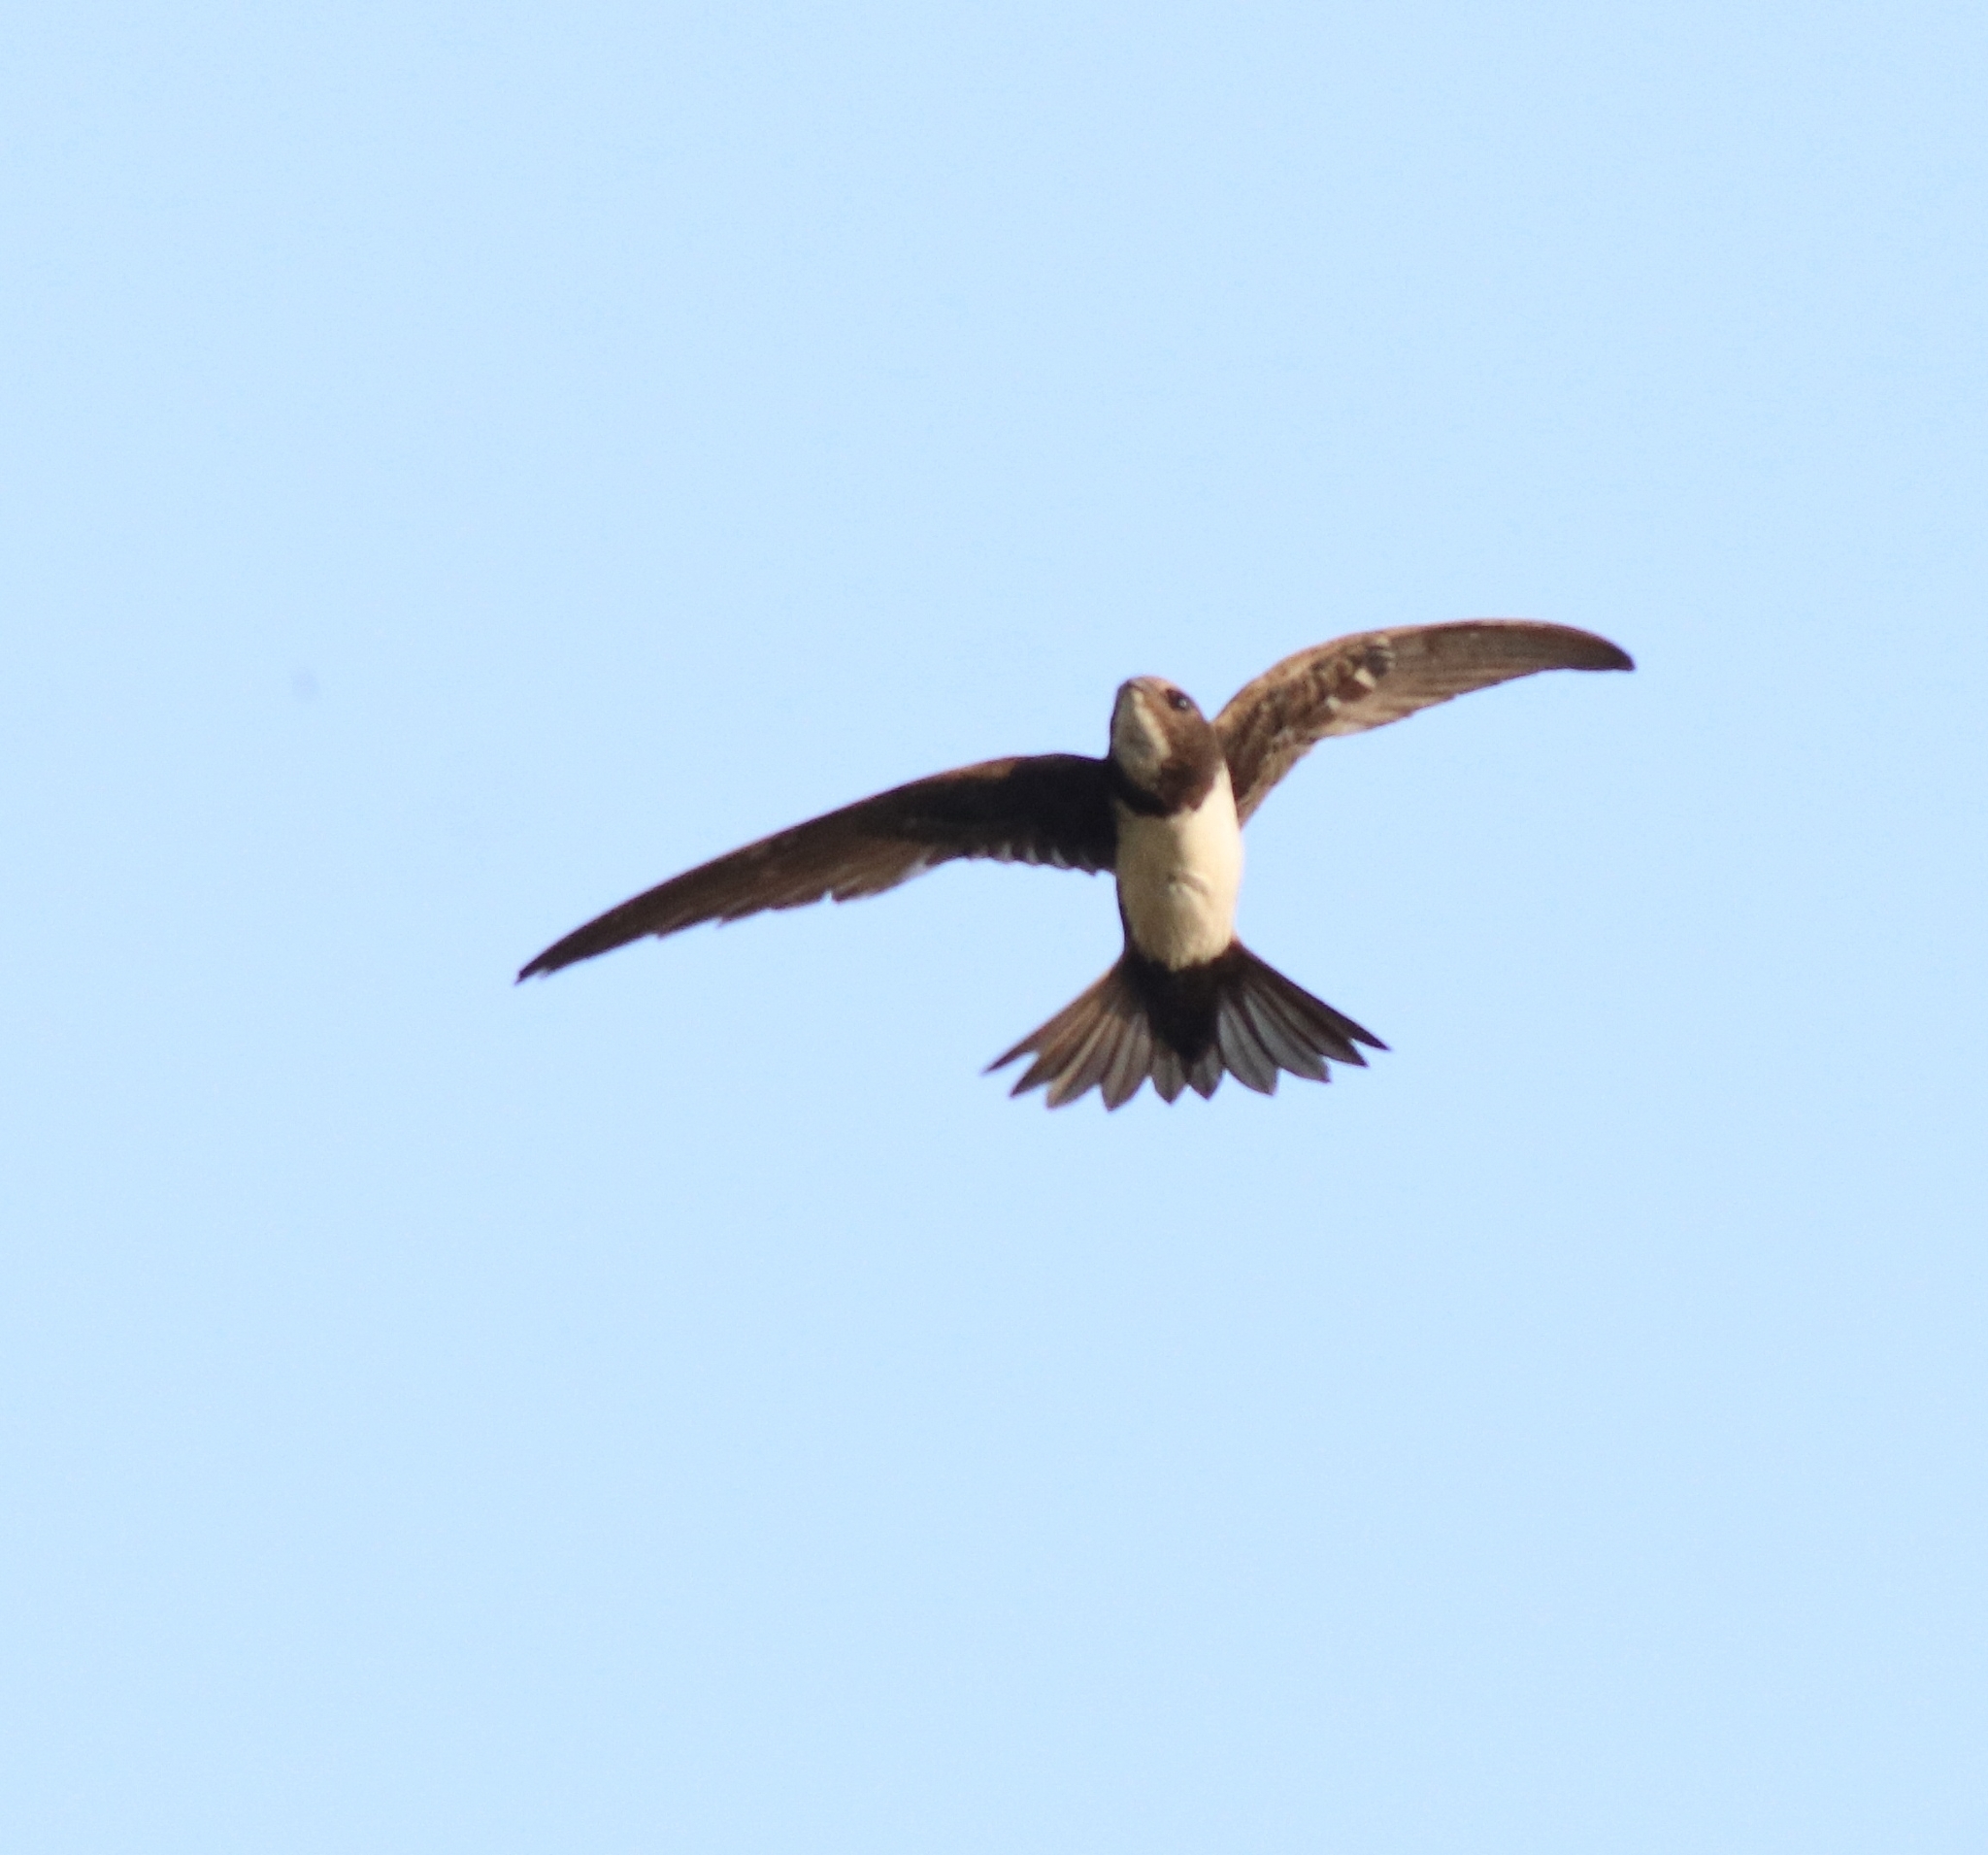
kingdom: Animalia
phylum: Chordata
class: Aves
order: Apodiformes
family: Apodidae
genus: Tachymarptis
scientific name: Tachymarptis melba
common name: Alpine swift
